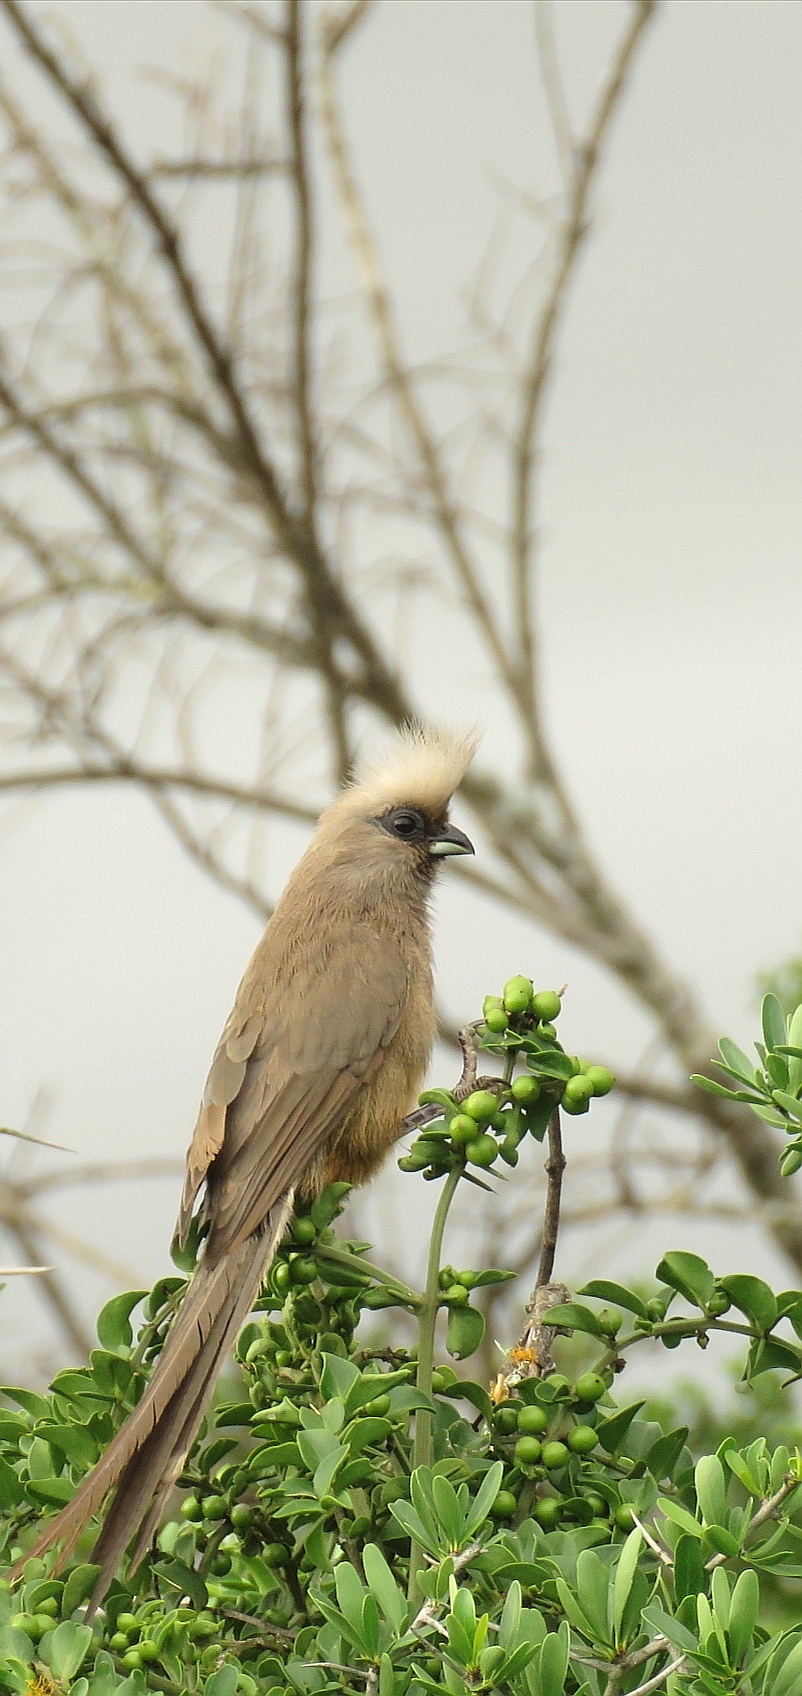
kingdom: Animalia
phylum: Chordata
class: Aves
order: Coliiformes
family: Coliidae
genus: Colius
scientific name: Colius striatus
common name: Speckled mousebird
